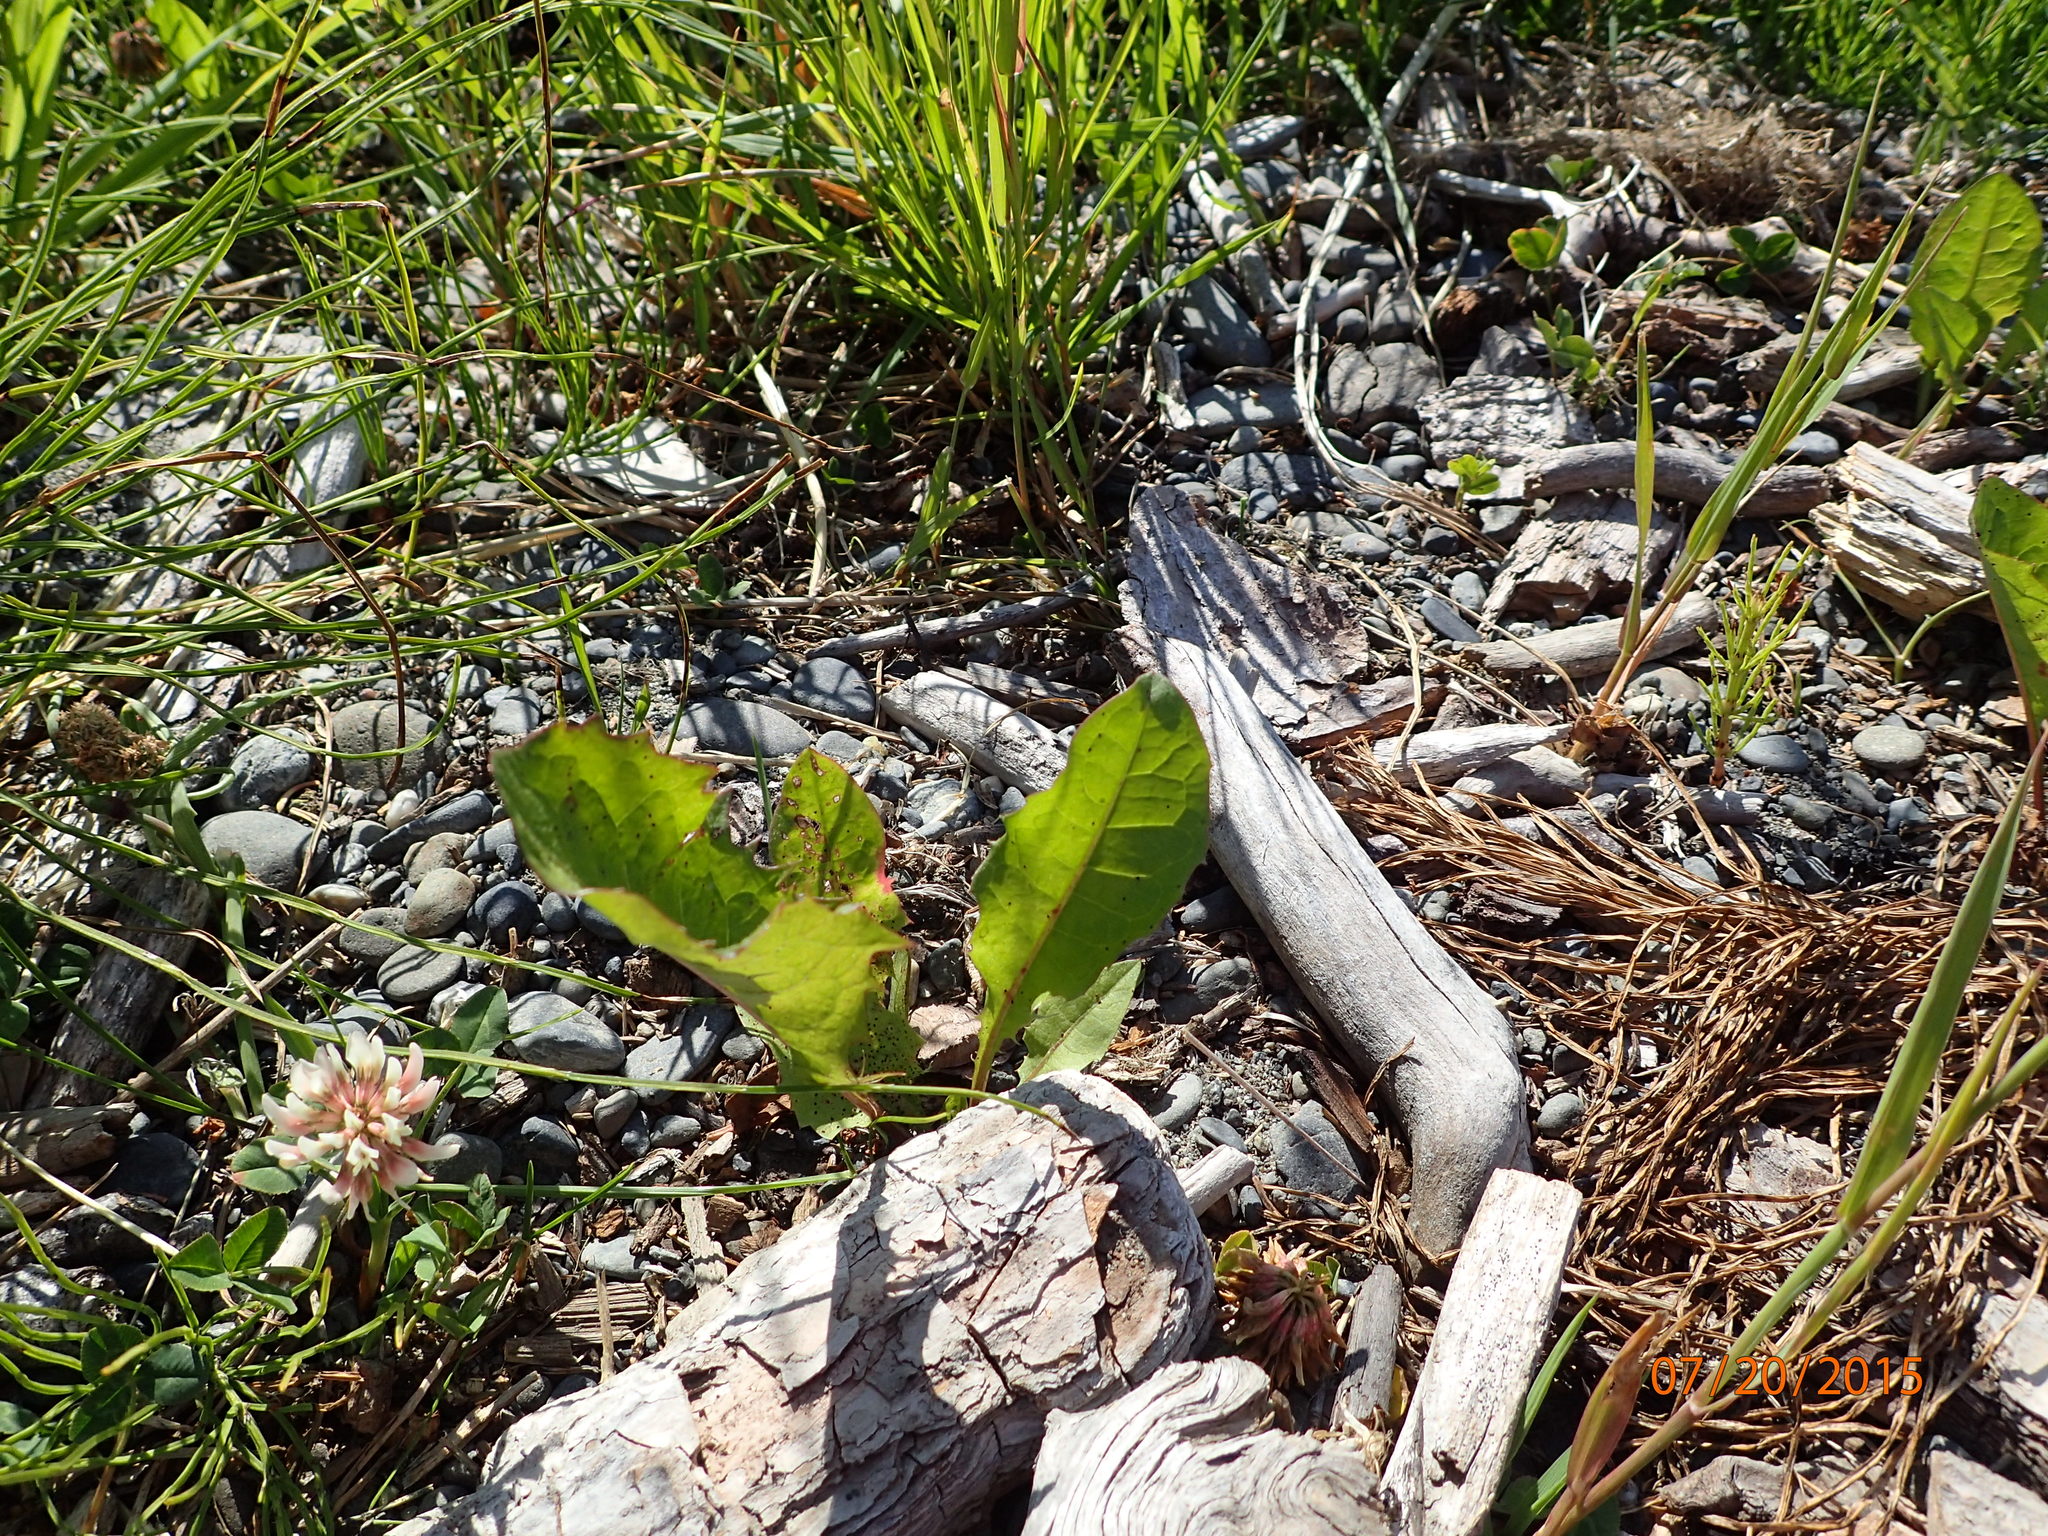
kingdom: Plantae
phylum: Tracheophyta
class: Magnoliopsida
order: Asterales
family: Asteraceae
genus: Taraxacum
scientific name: Taraxacum officinale
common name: Common dandelion
